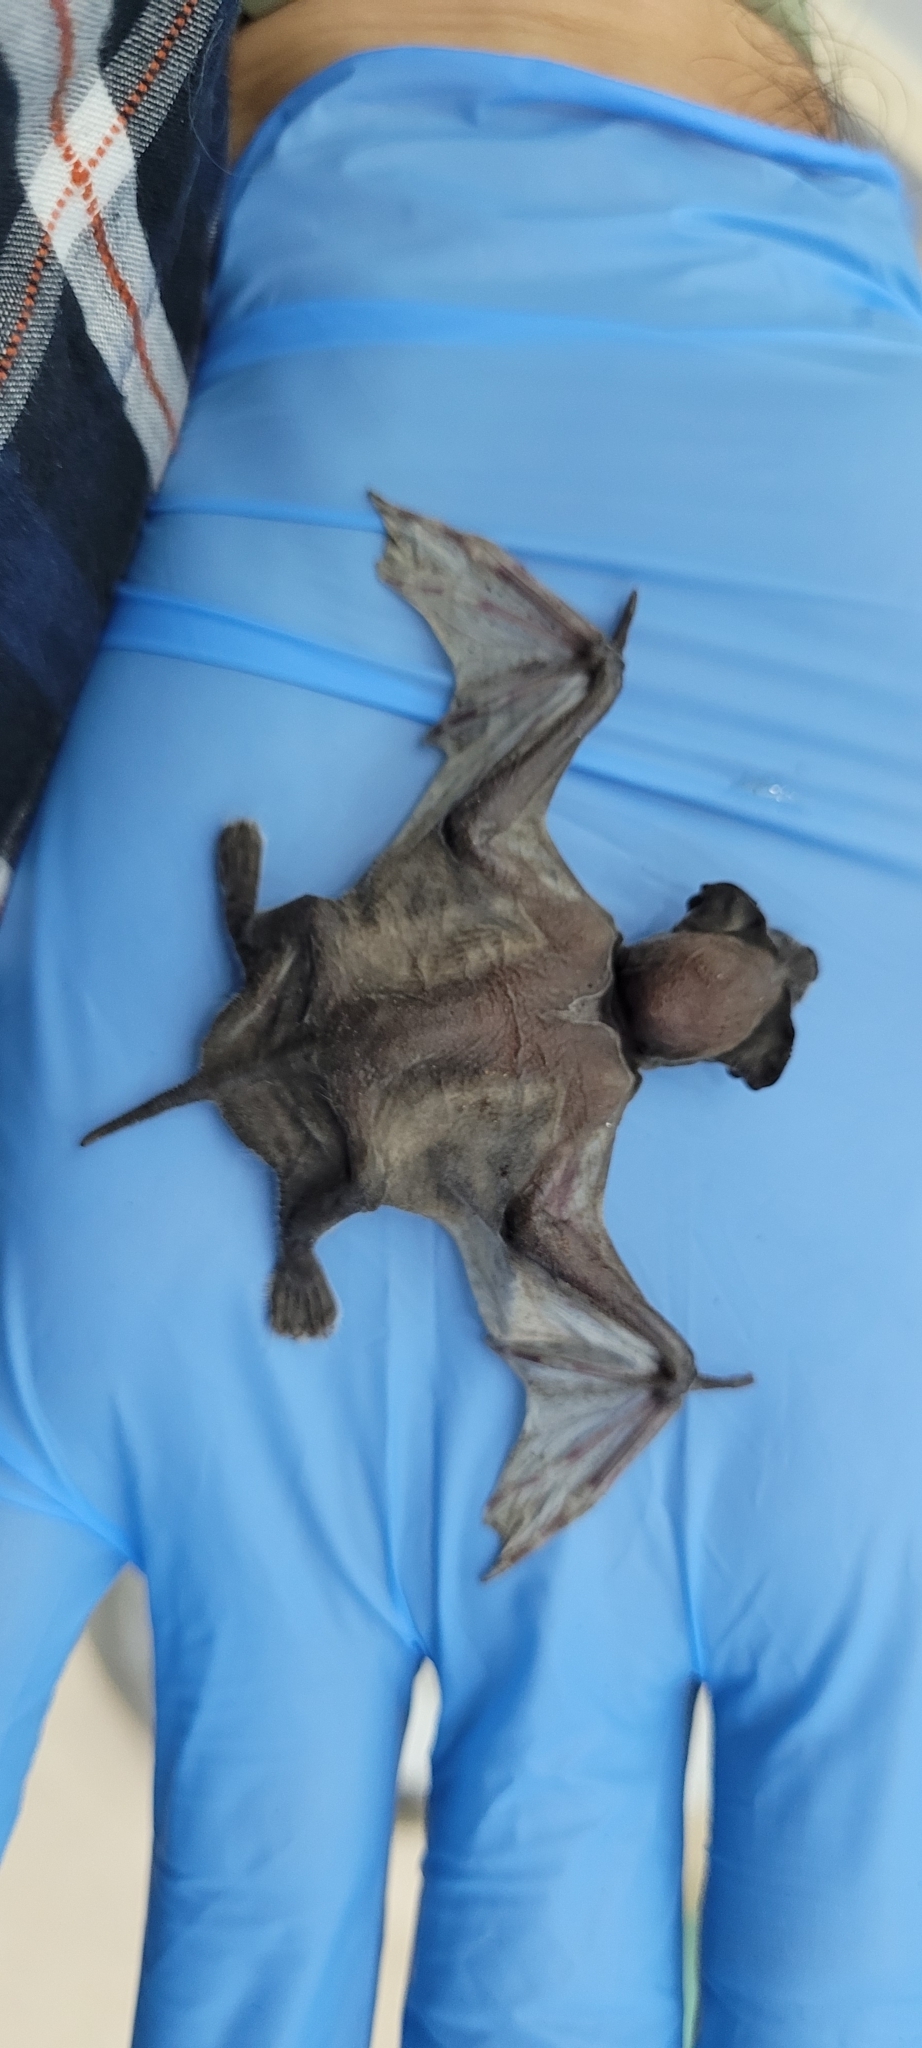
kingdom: Animalia
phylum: Chordata
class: Mammalia
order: Chiroptera
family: Molossidae
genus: Tadarida
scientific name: Tadarida brasiliensis
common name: Mexican free-tailed bat
